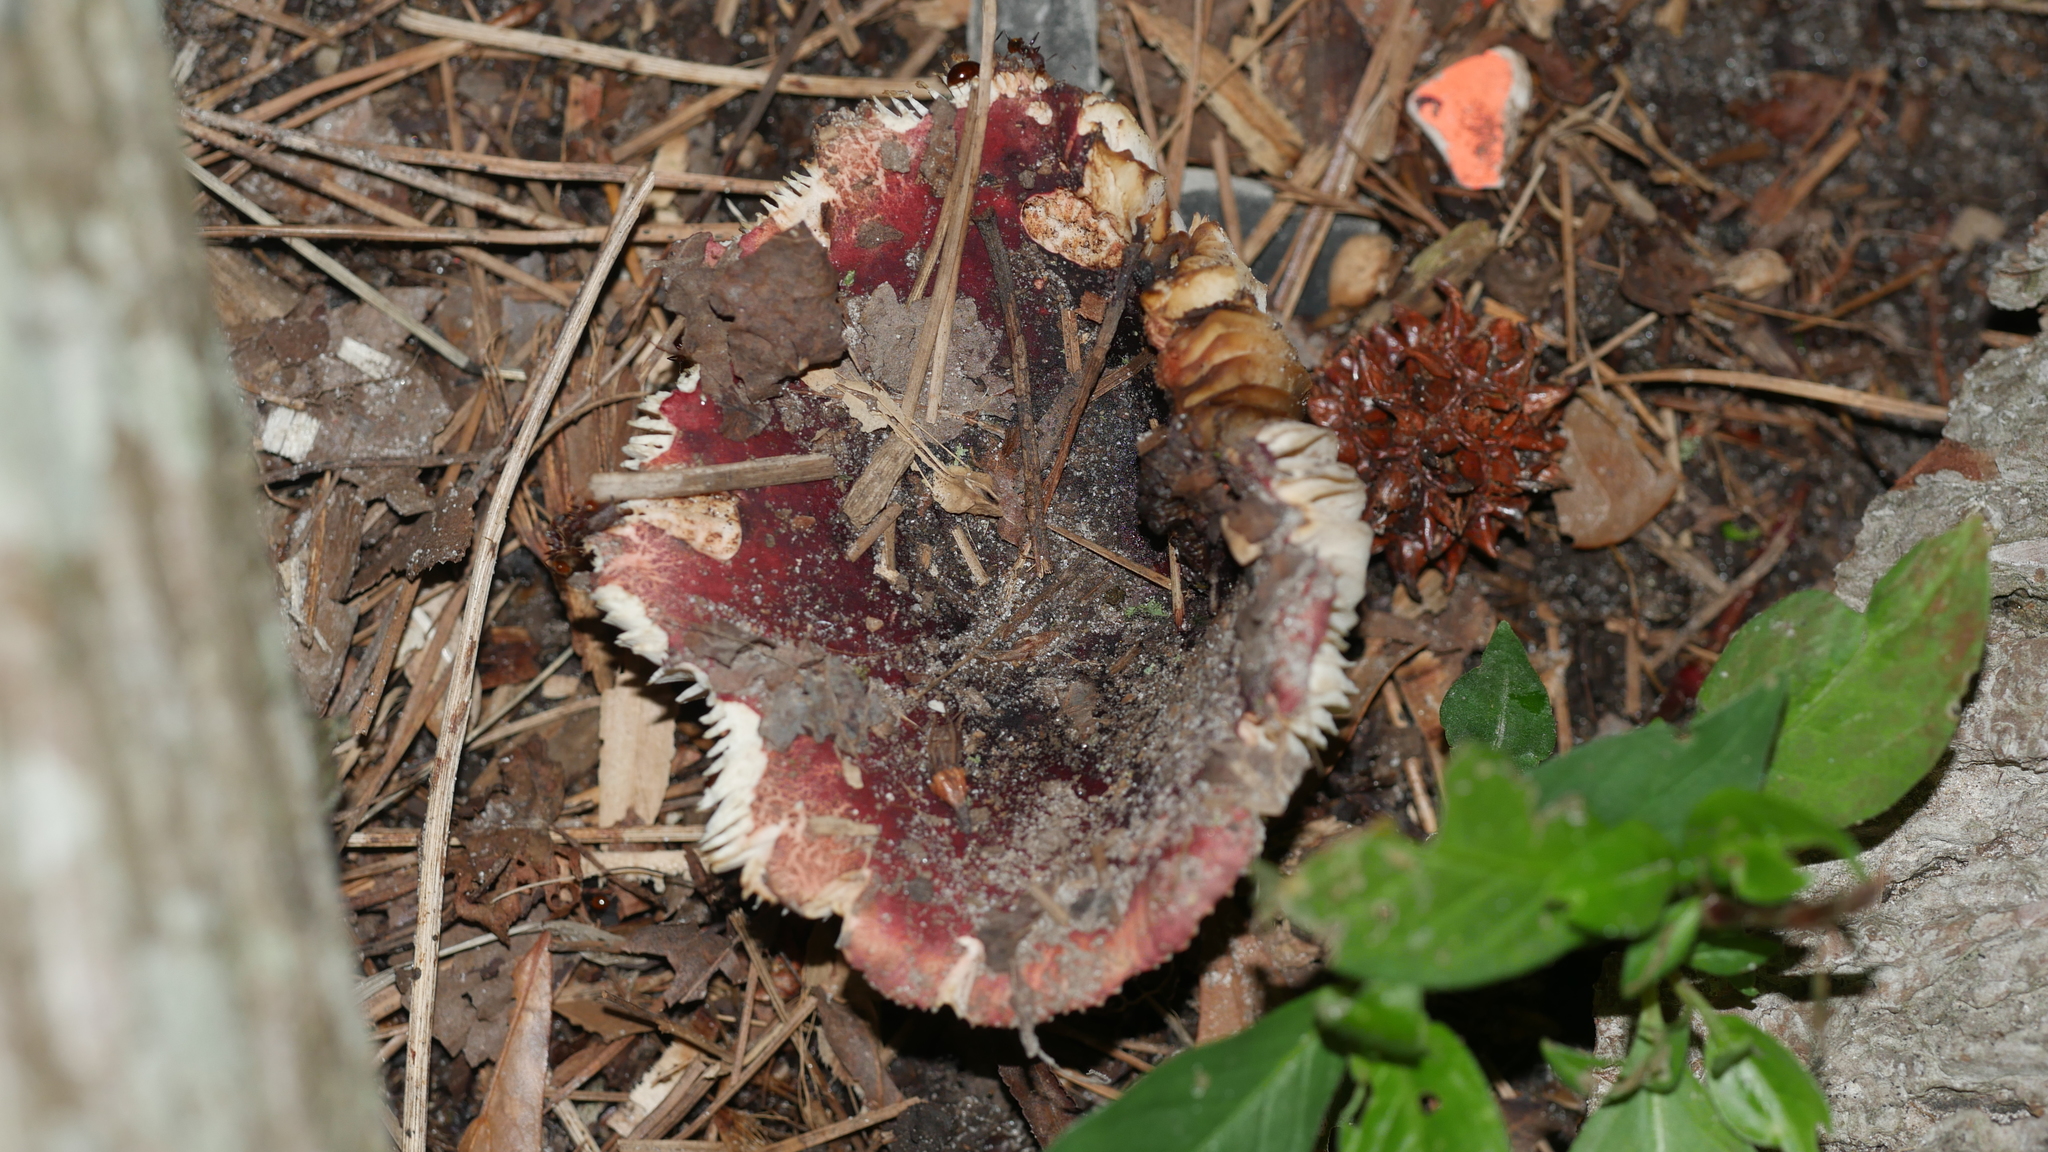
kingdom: Fungi
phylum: Basidiomycota
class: Agaricomycetes
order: Russulales
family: Russulaceae
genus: Russula
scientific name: Russula
